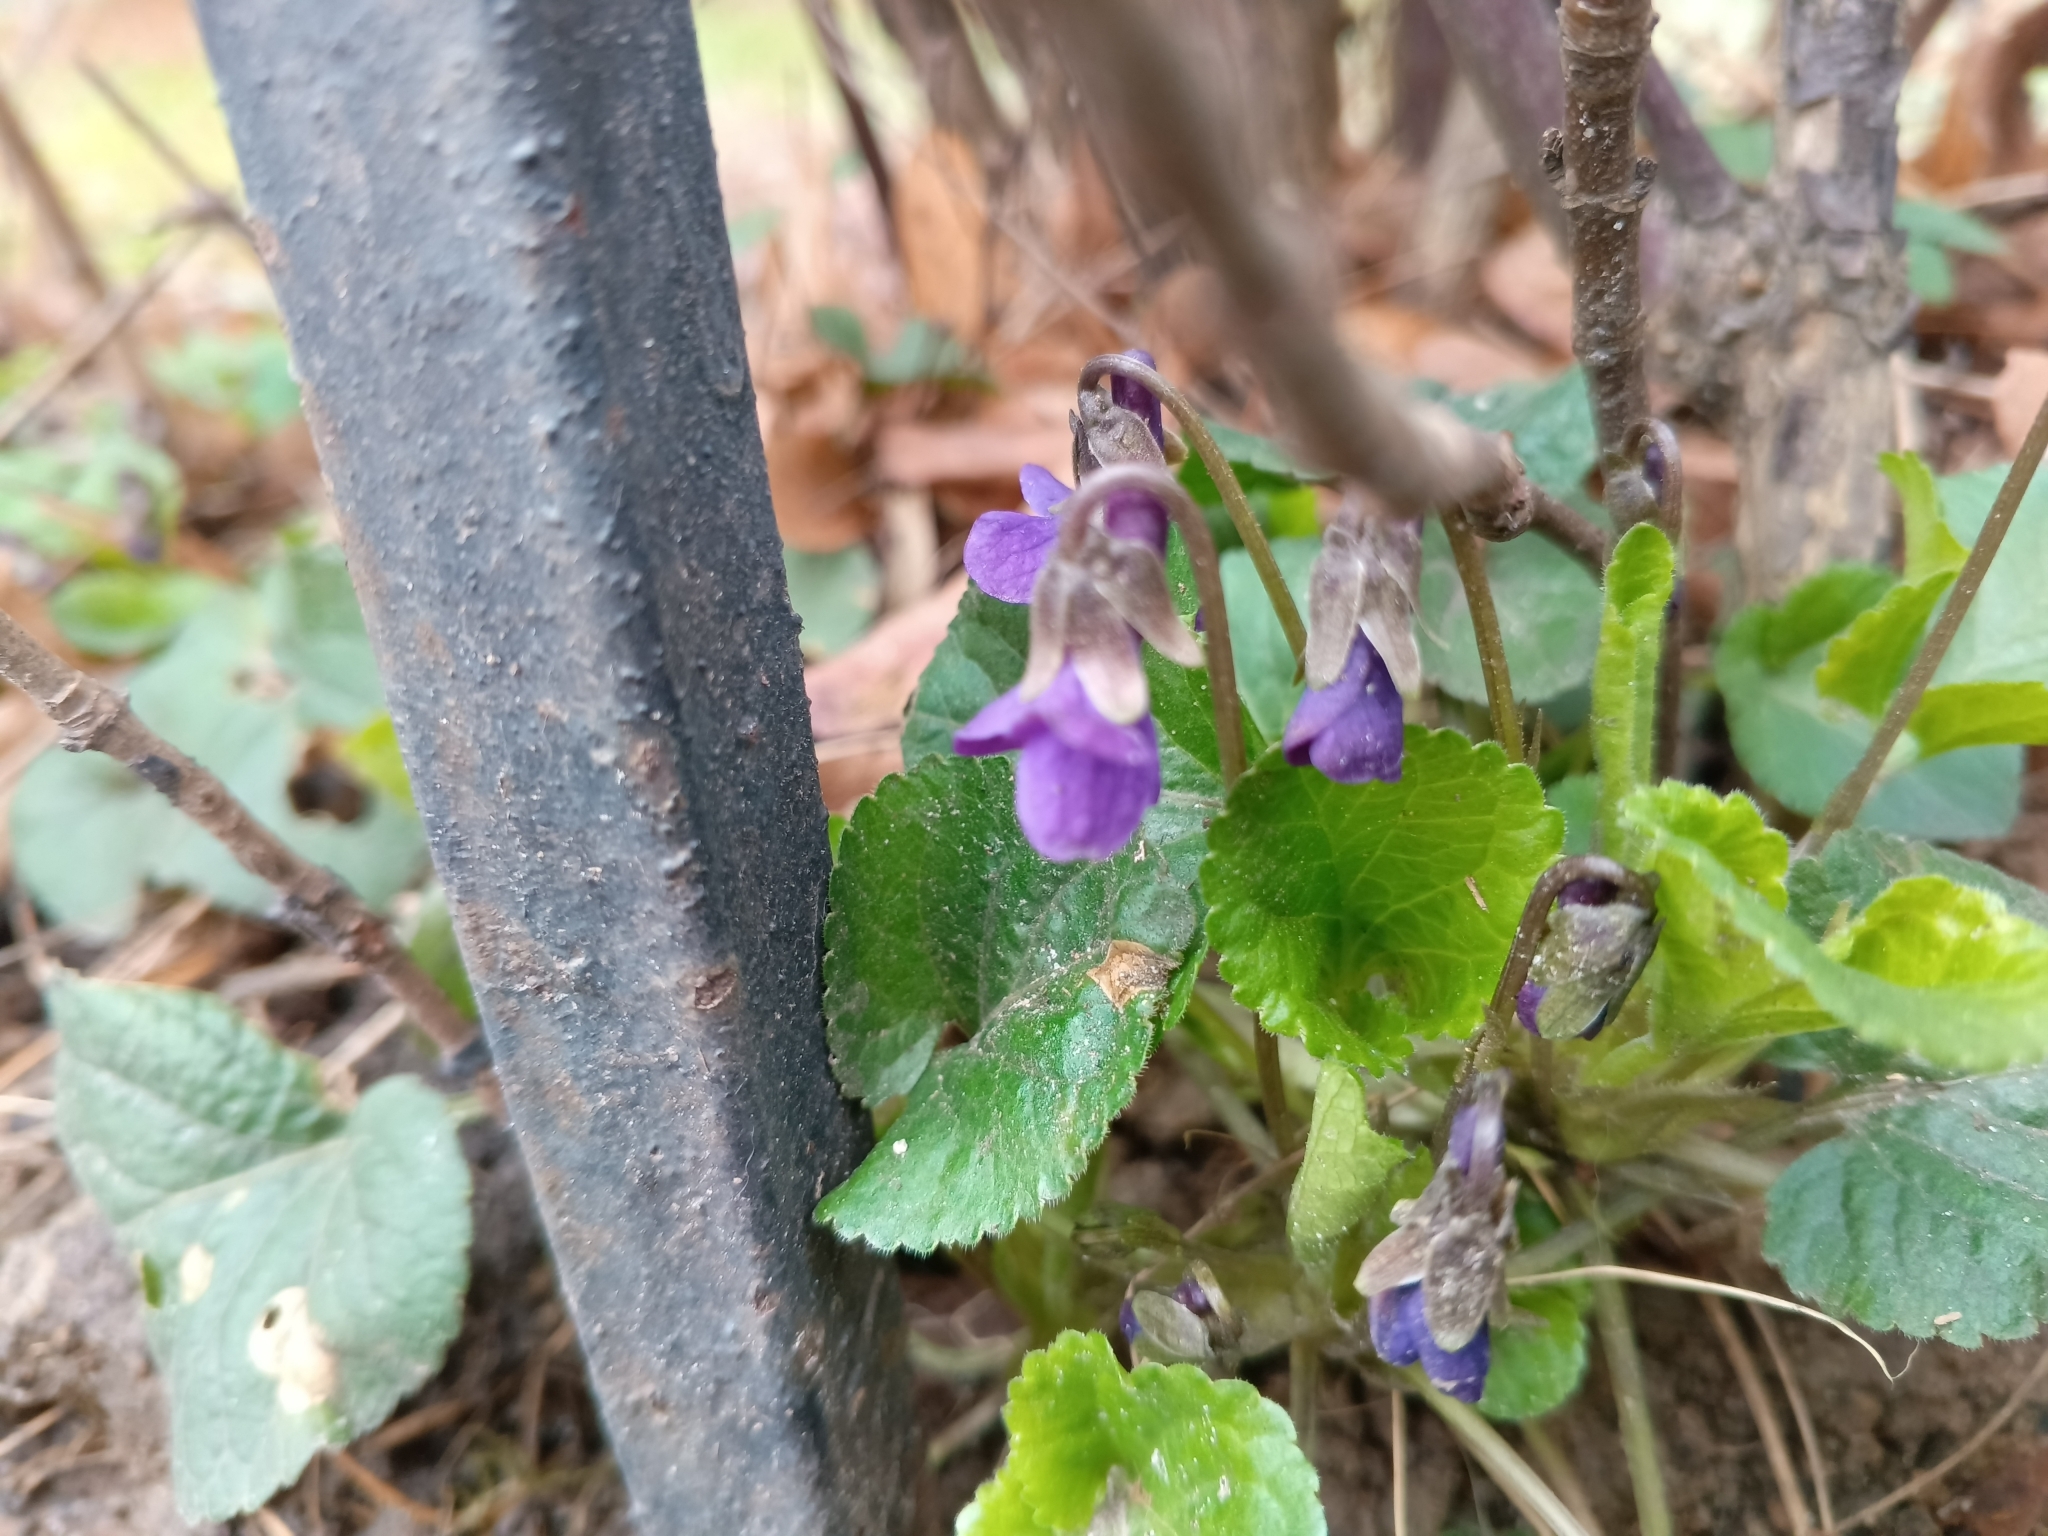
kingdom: Plantae
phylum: Tracheophyta
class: Magnoliopsida
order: Malpighiales
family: Violaceae
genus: Viola
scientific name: Viola odorata
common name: Sweet violet
